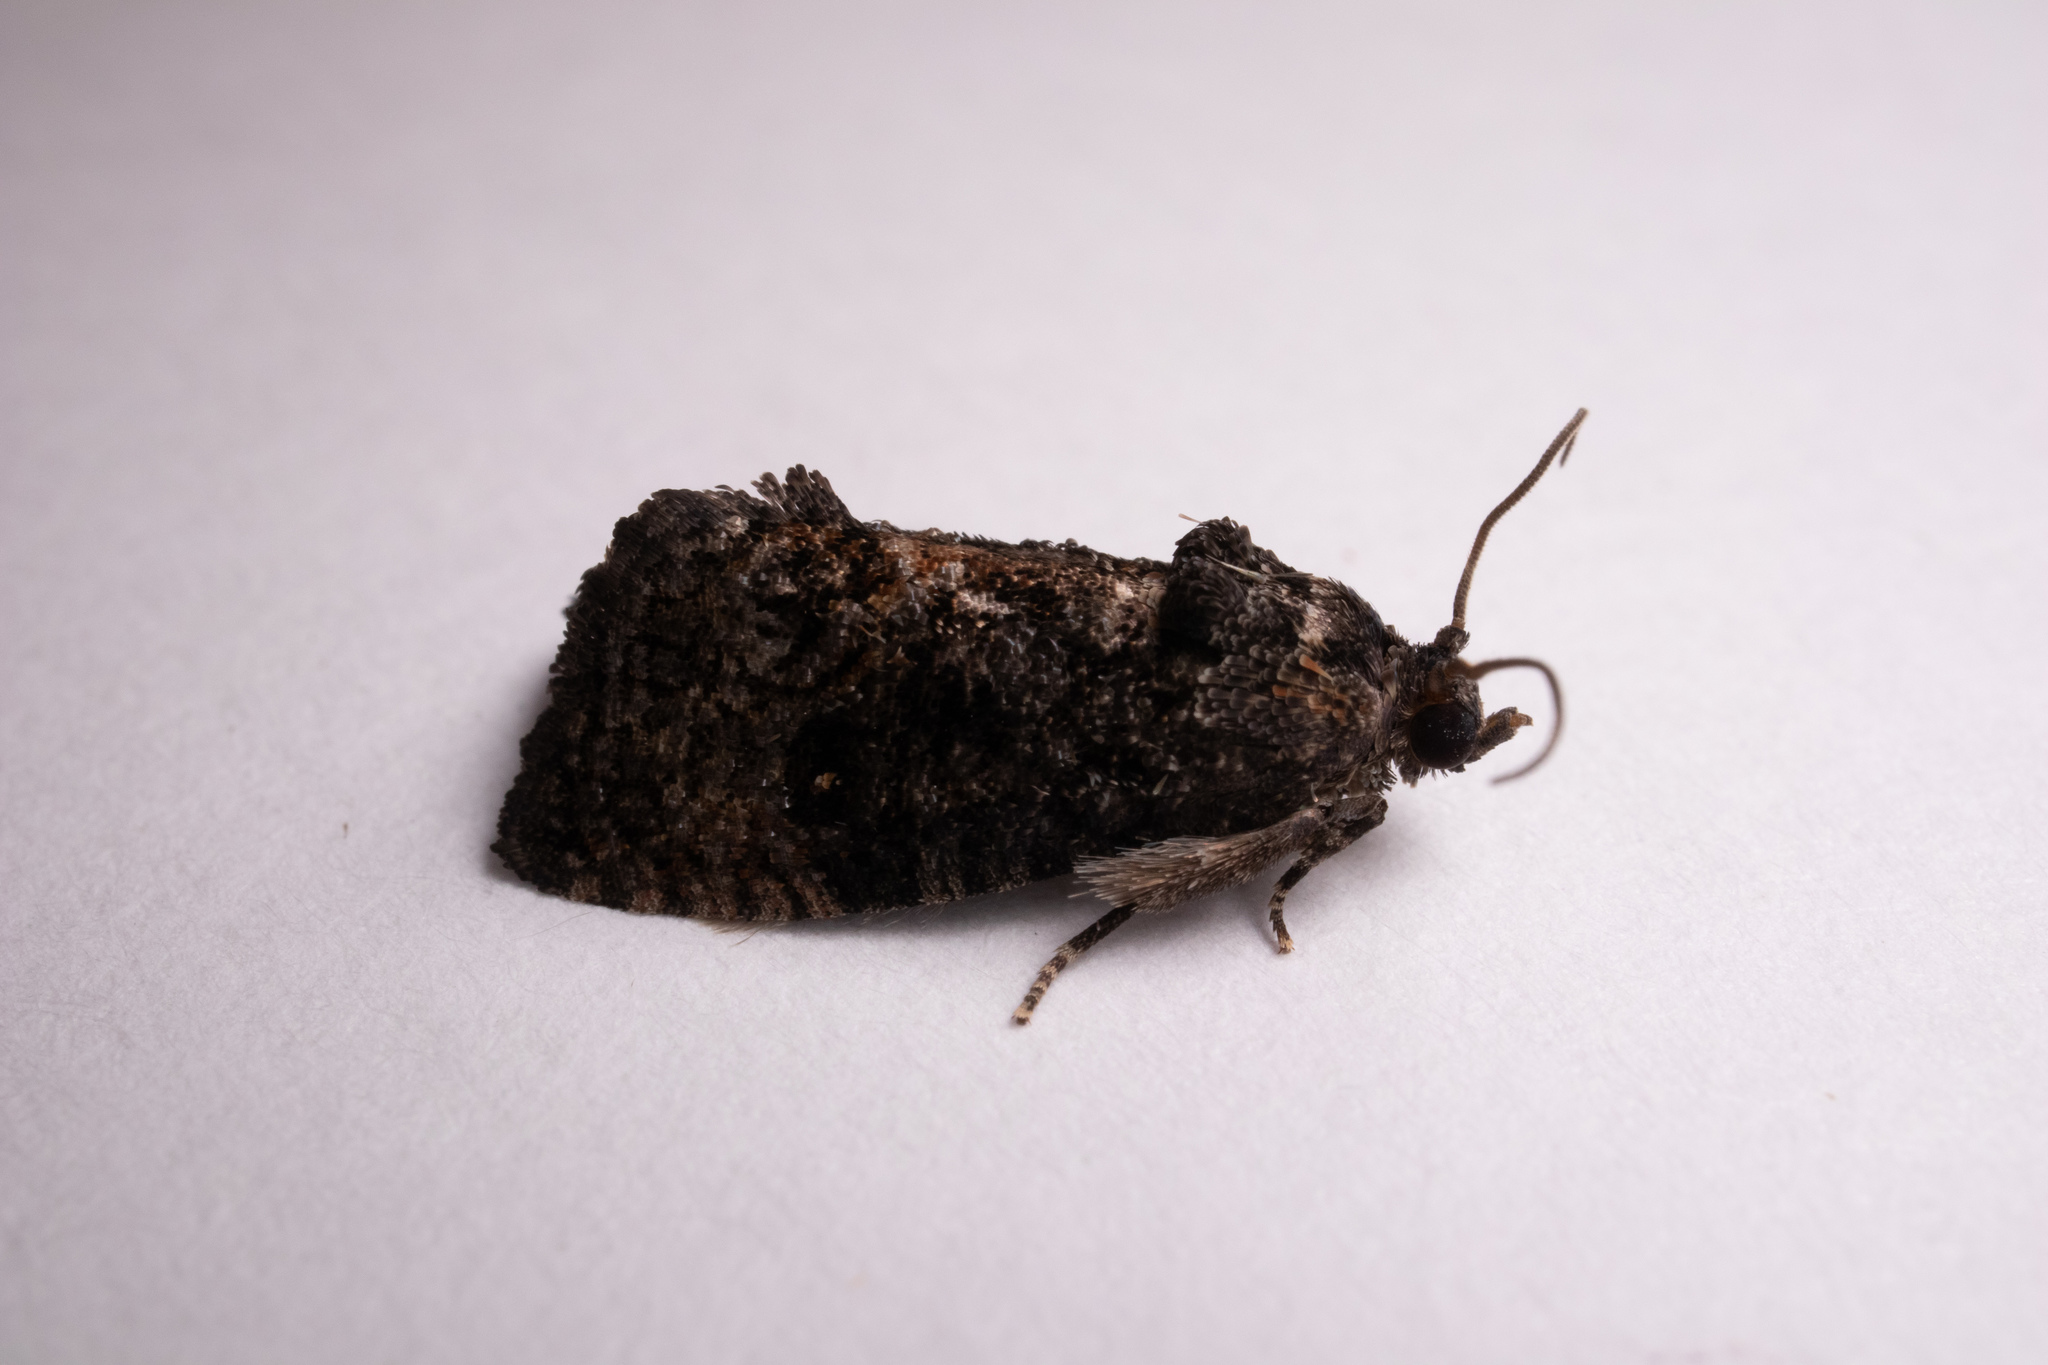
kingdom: Animalia
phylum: Arthropoda
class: Insecta
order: Lepidoptera
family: Tortricidae
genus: Gymnandrosoma
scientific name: Gymnandrosoma punctidiscanum
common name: Dotted ecdytolopha moth
